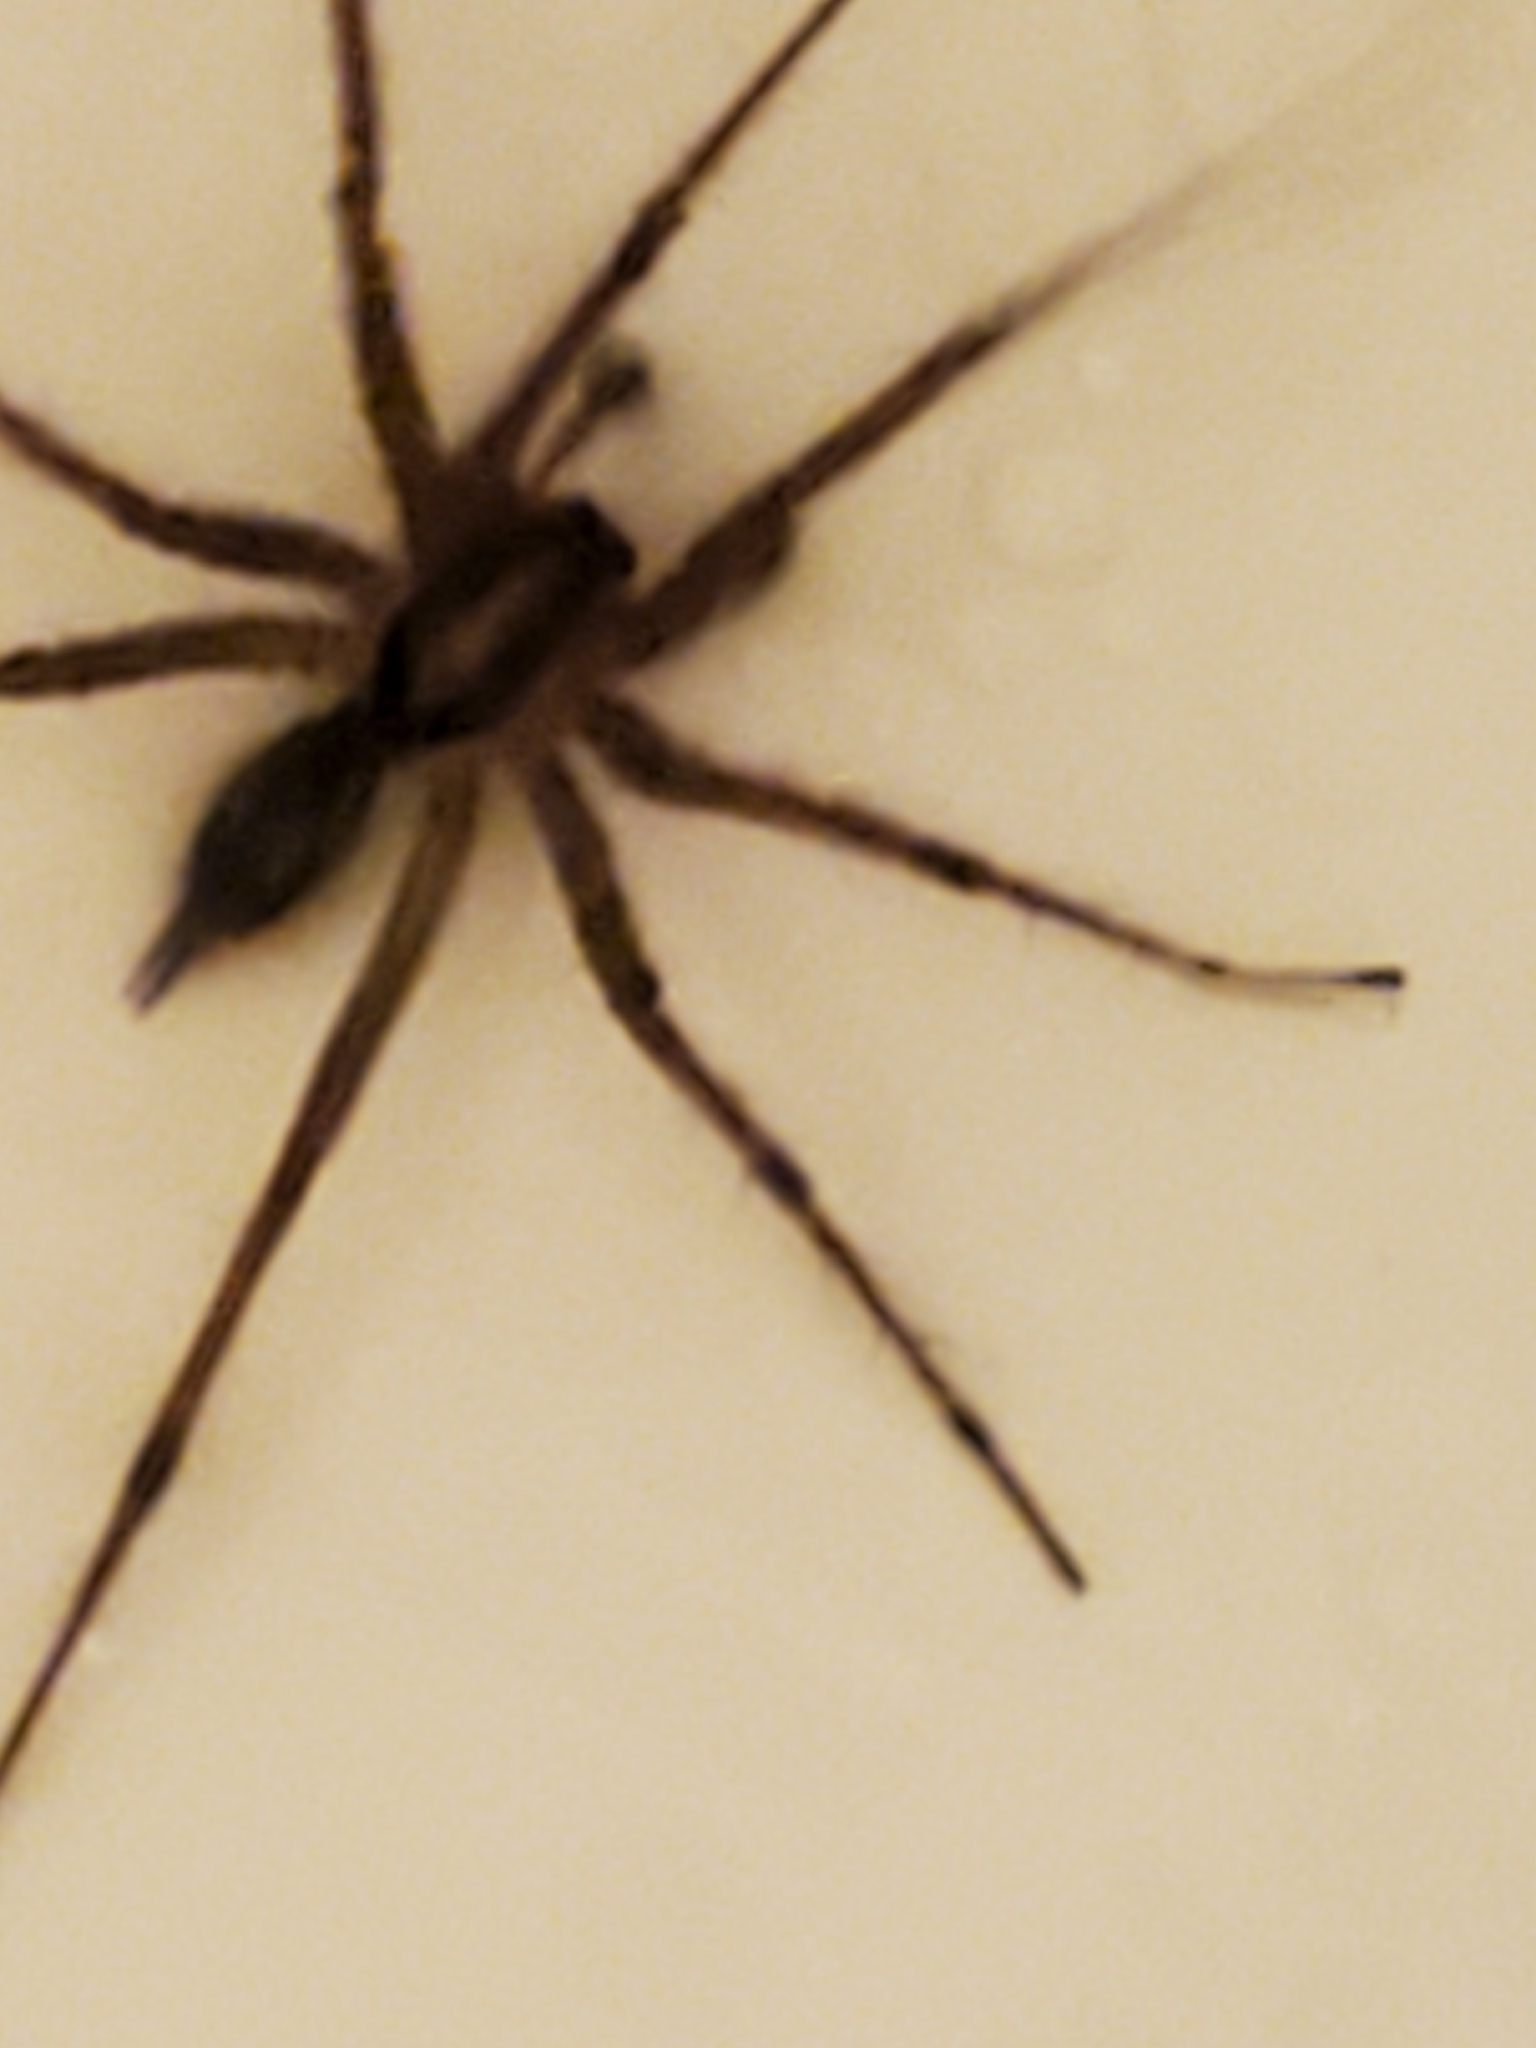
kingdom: Animalia
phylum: Arthropoda
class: Arachnida
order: Araneae
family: Agelenidae
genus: Agelenopsis
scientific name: Agelenopsis
